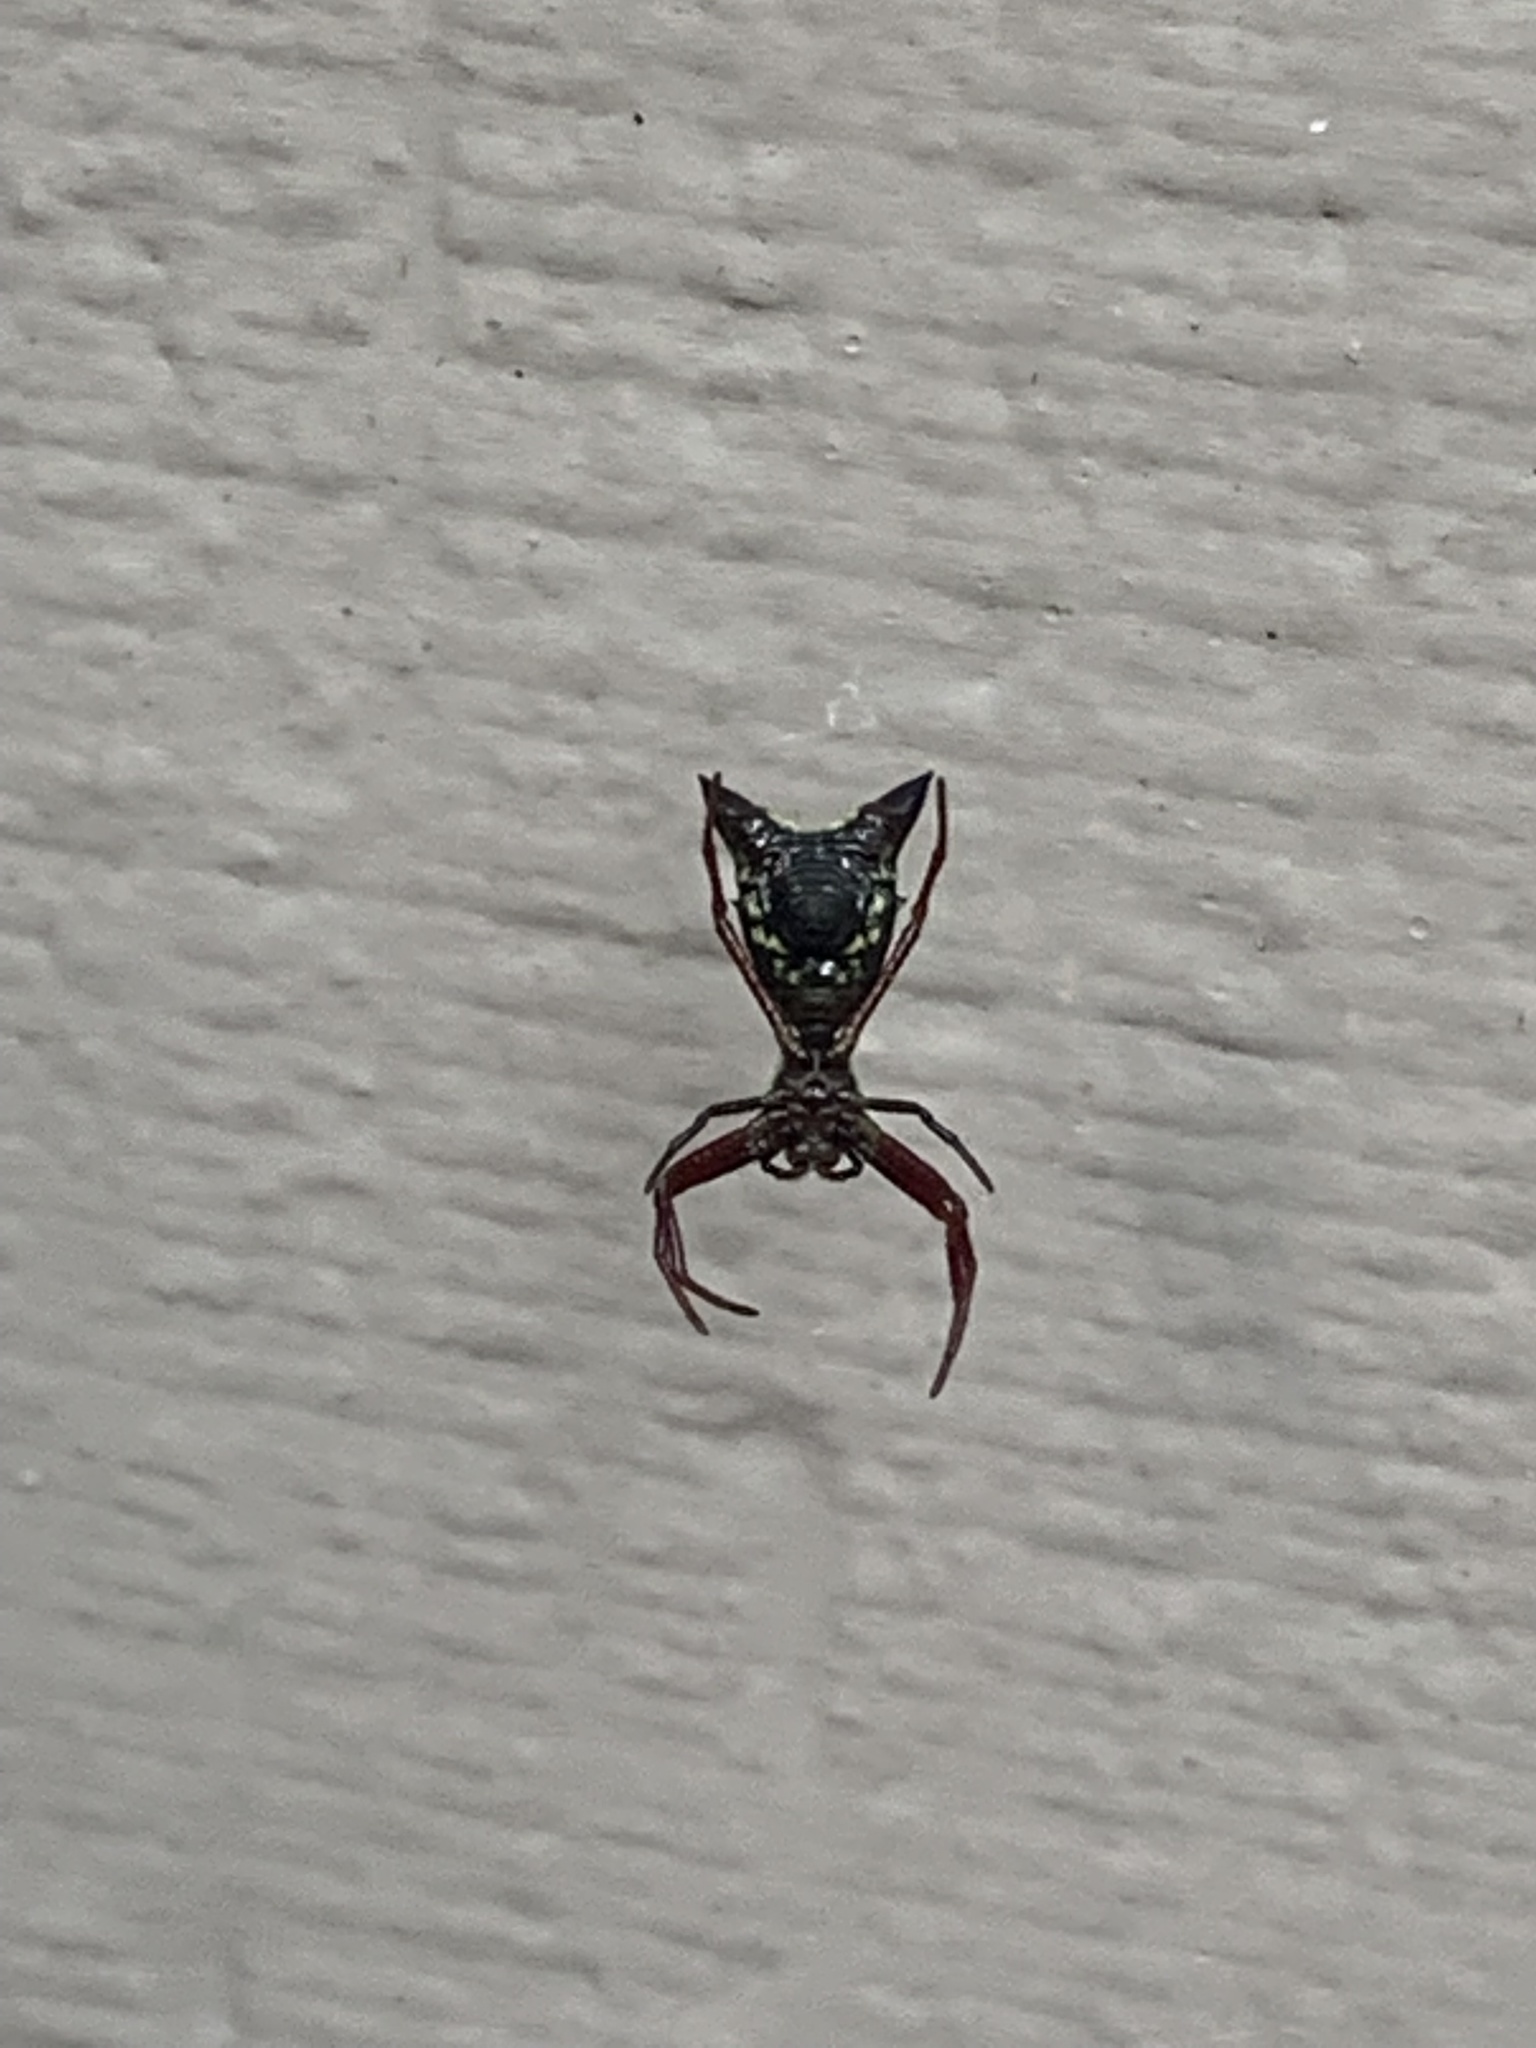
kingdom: Animalia
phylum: Arthropoda
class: Arachnida
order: Araneae
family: Araneidae
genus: Micrathena
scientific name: Micrathena sagittata
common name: Orb weavers
